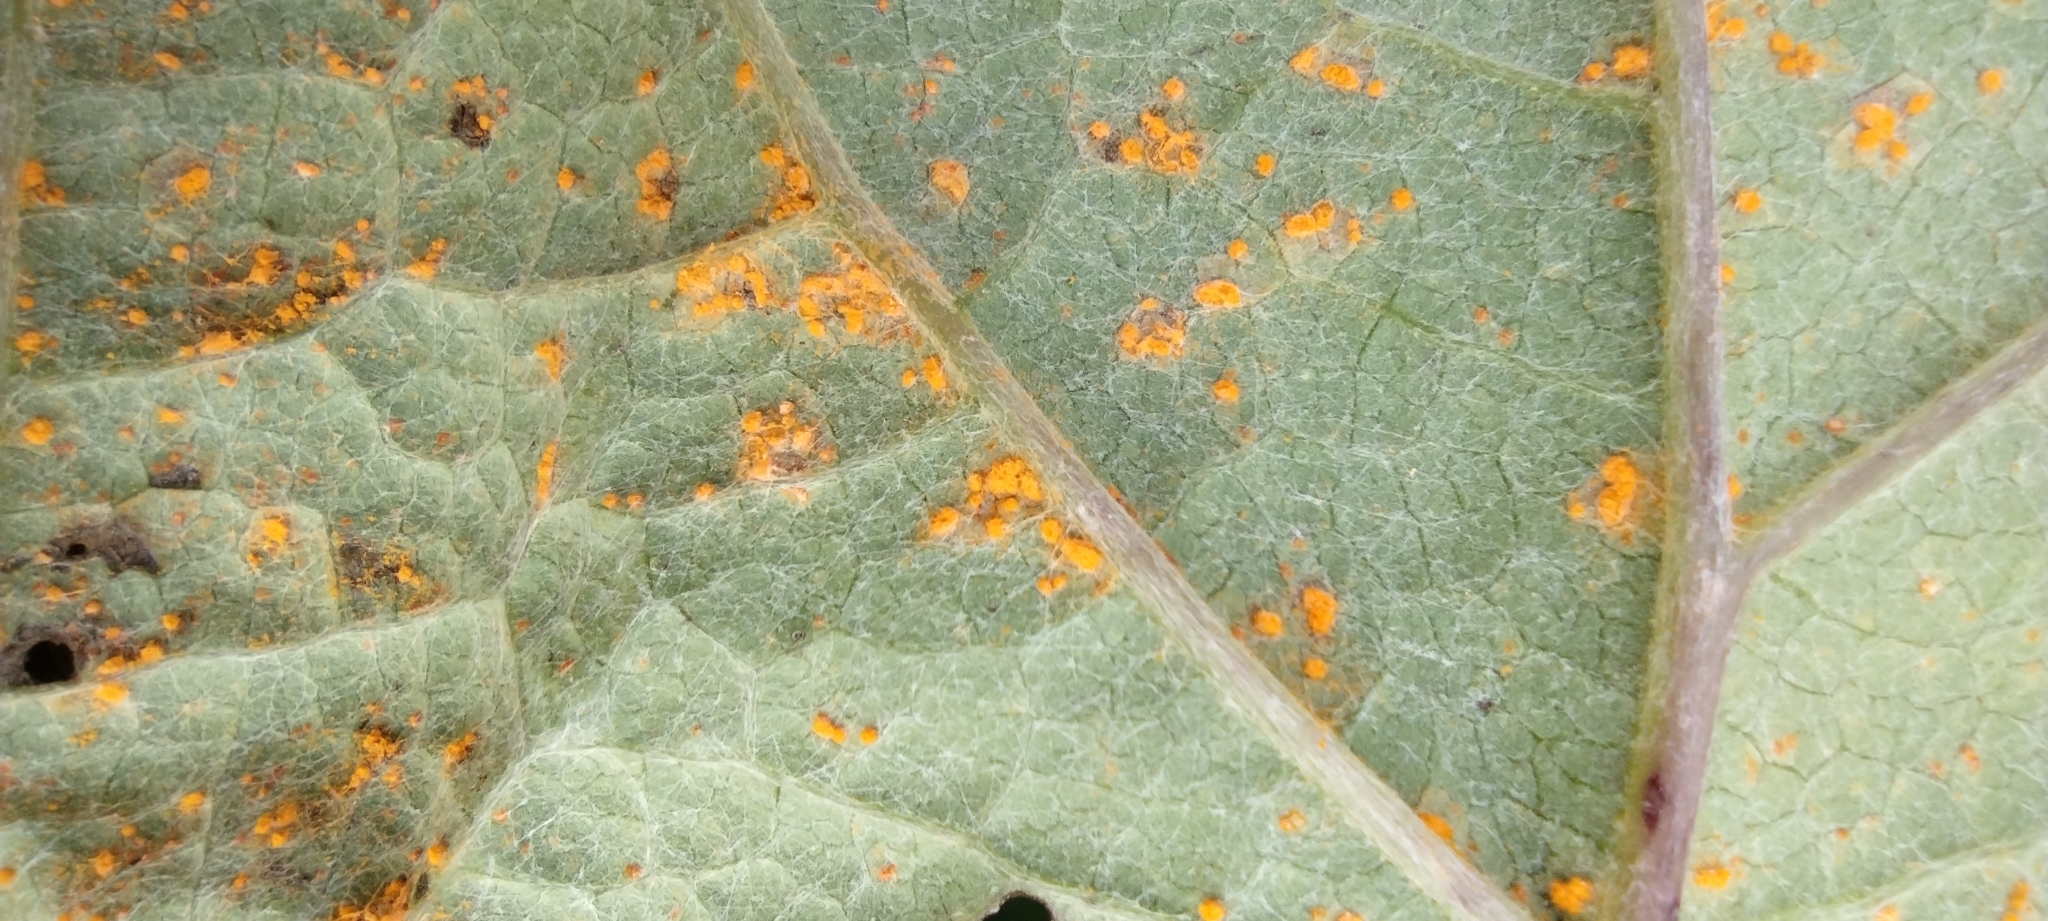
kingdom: Fungi
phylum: Basidiomycota
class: Pucciniomycetes
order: Pucciniales
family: Coleosporiaceae
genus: Coleosporium
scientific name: Coleosporium petasitis
